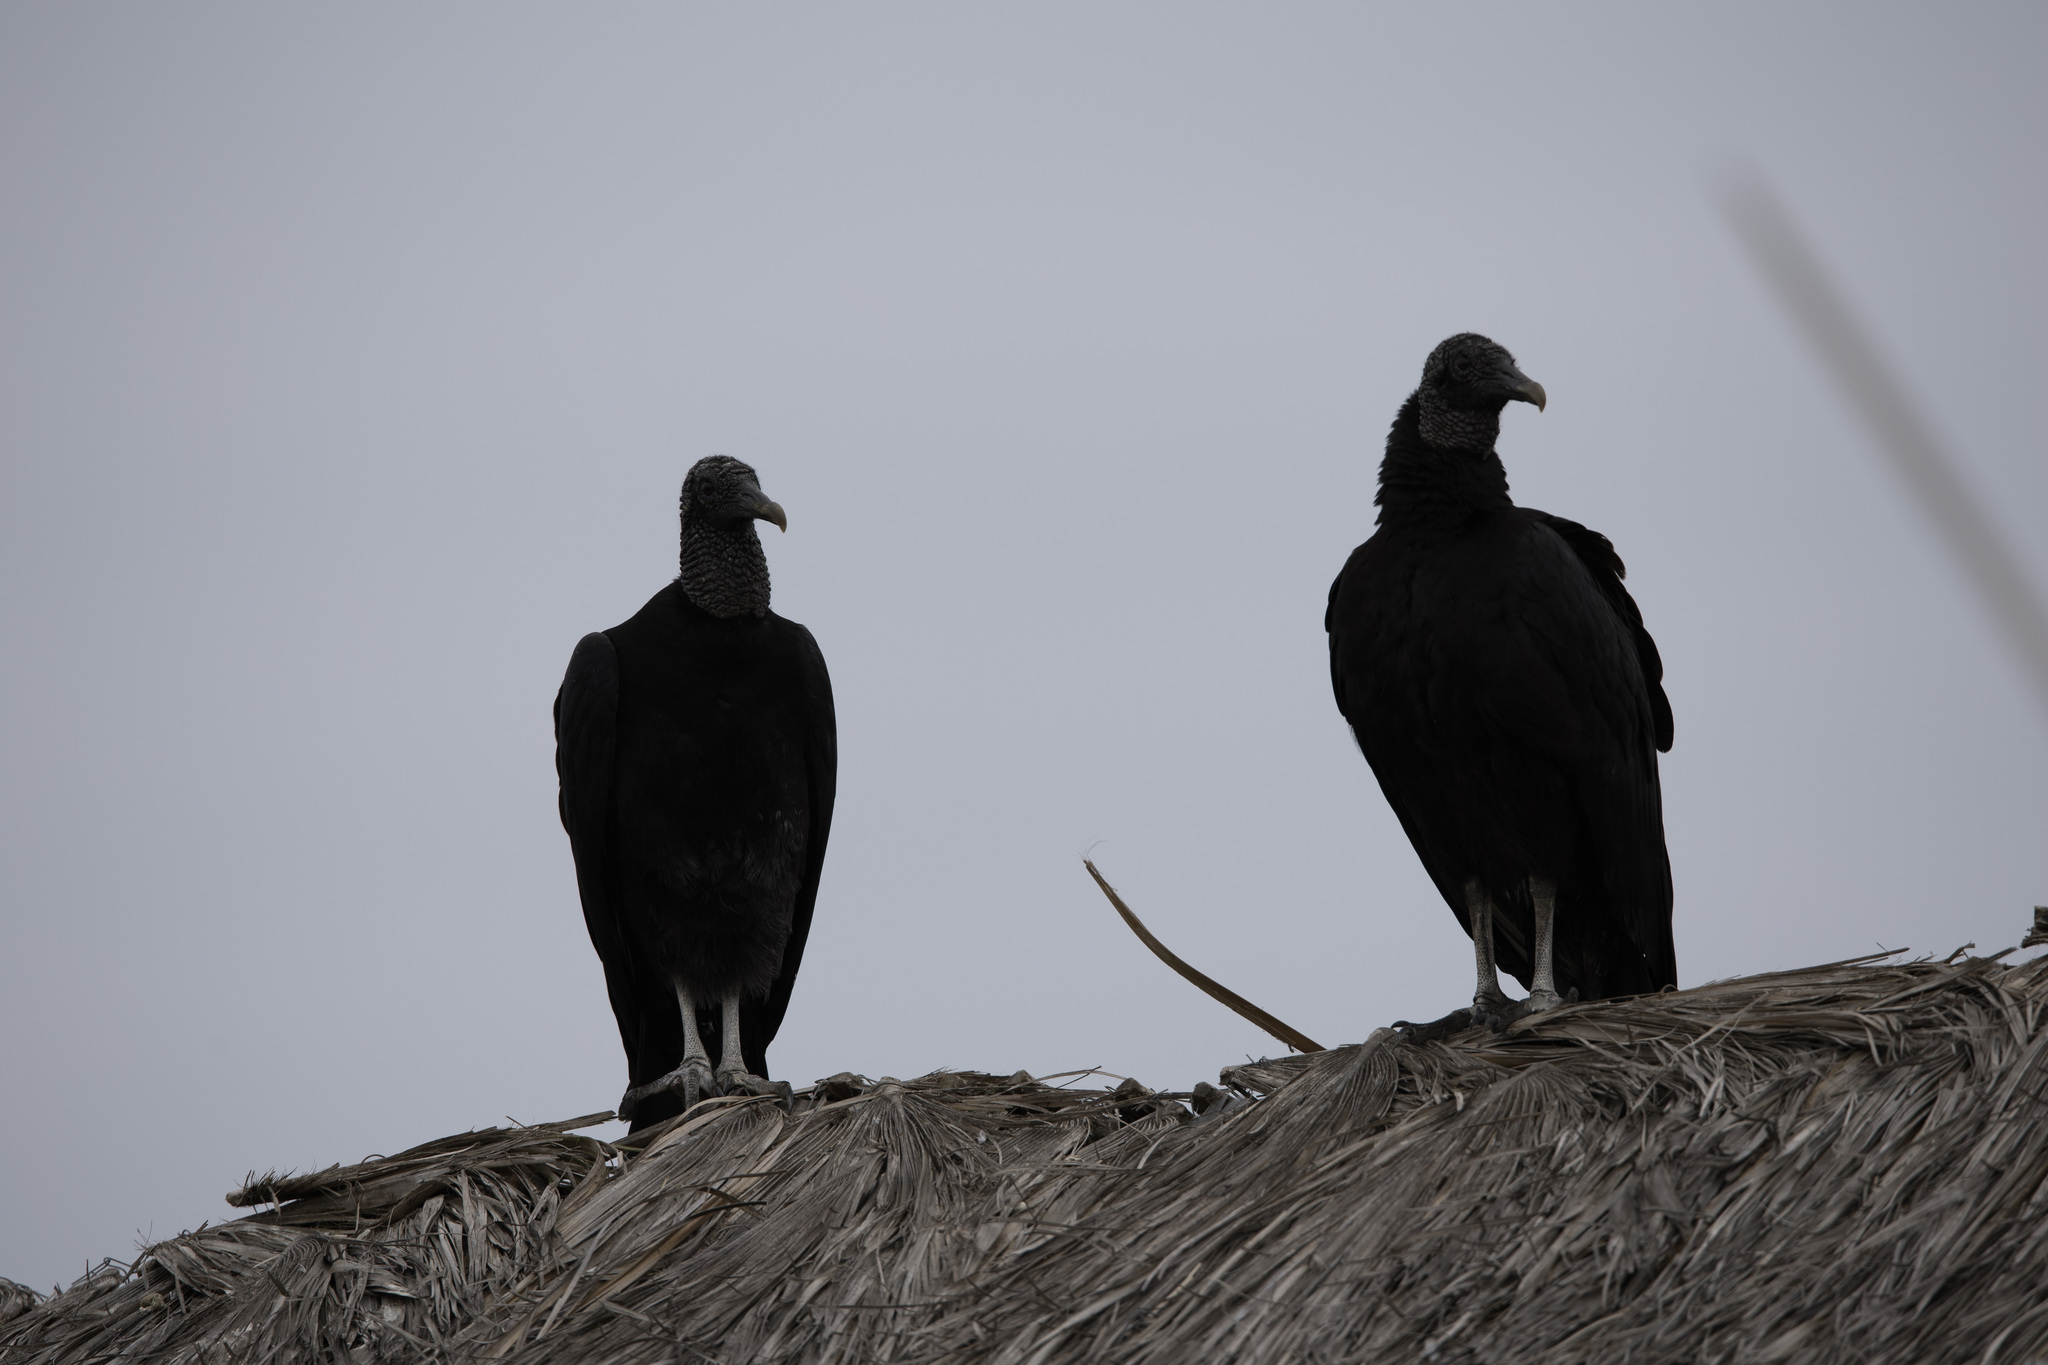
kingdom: Animalia
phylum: Chordata
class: Aves
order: Accipitriformes
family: Cathartidae
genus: Coragyps
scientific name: Coragyps atratus
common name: Black vulture
